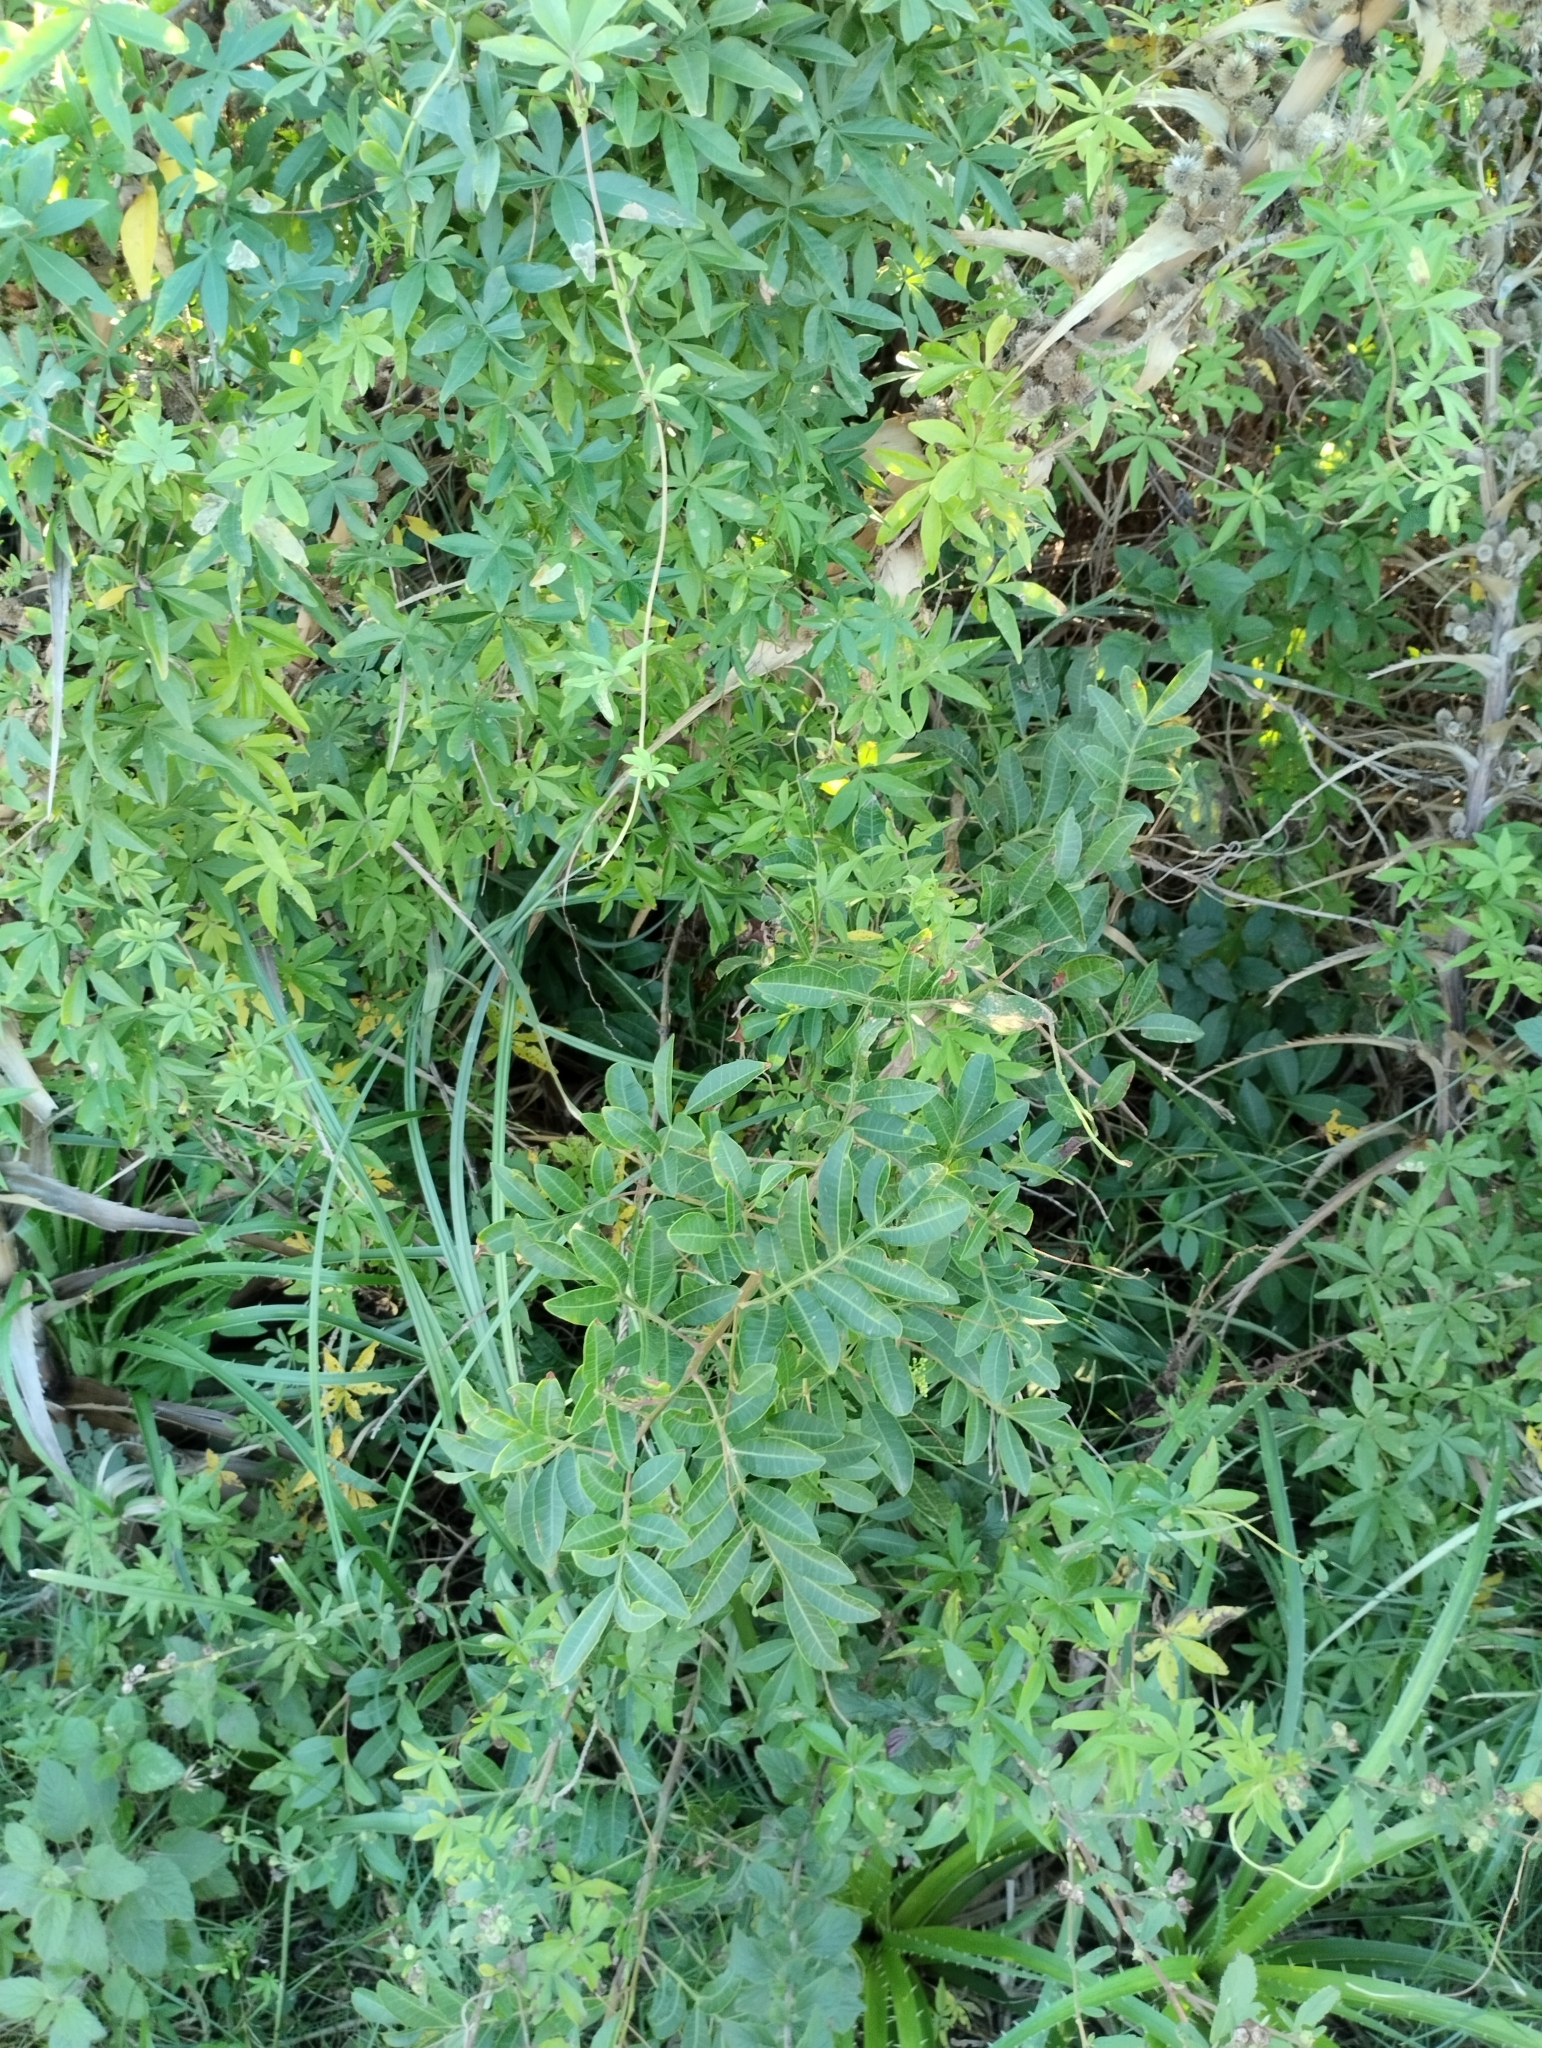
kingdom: Plantae
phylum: Tracheophyta
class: Magnoliopsida
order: Sapindales
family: Anacardiaceae
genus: Schinus
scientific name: Schinus terebinthifolia
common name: Brazilian peppertree
